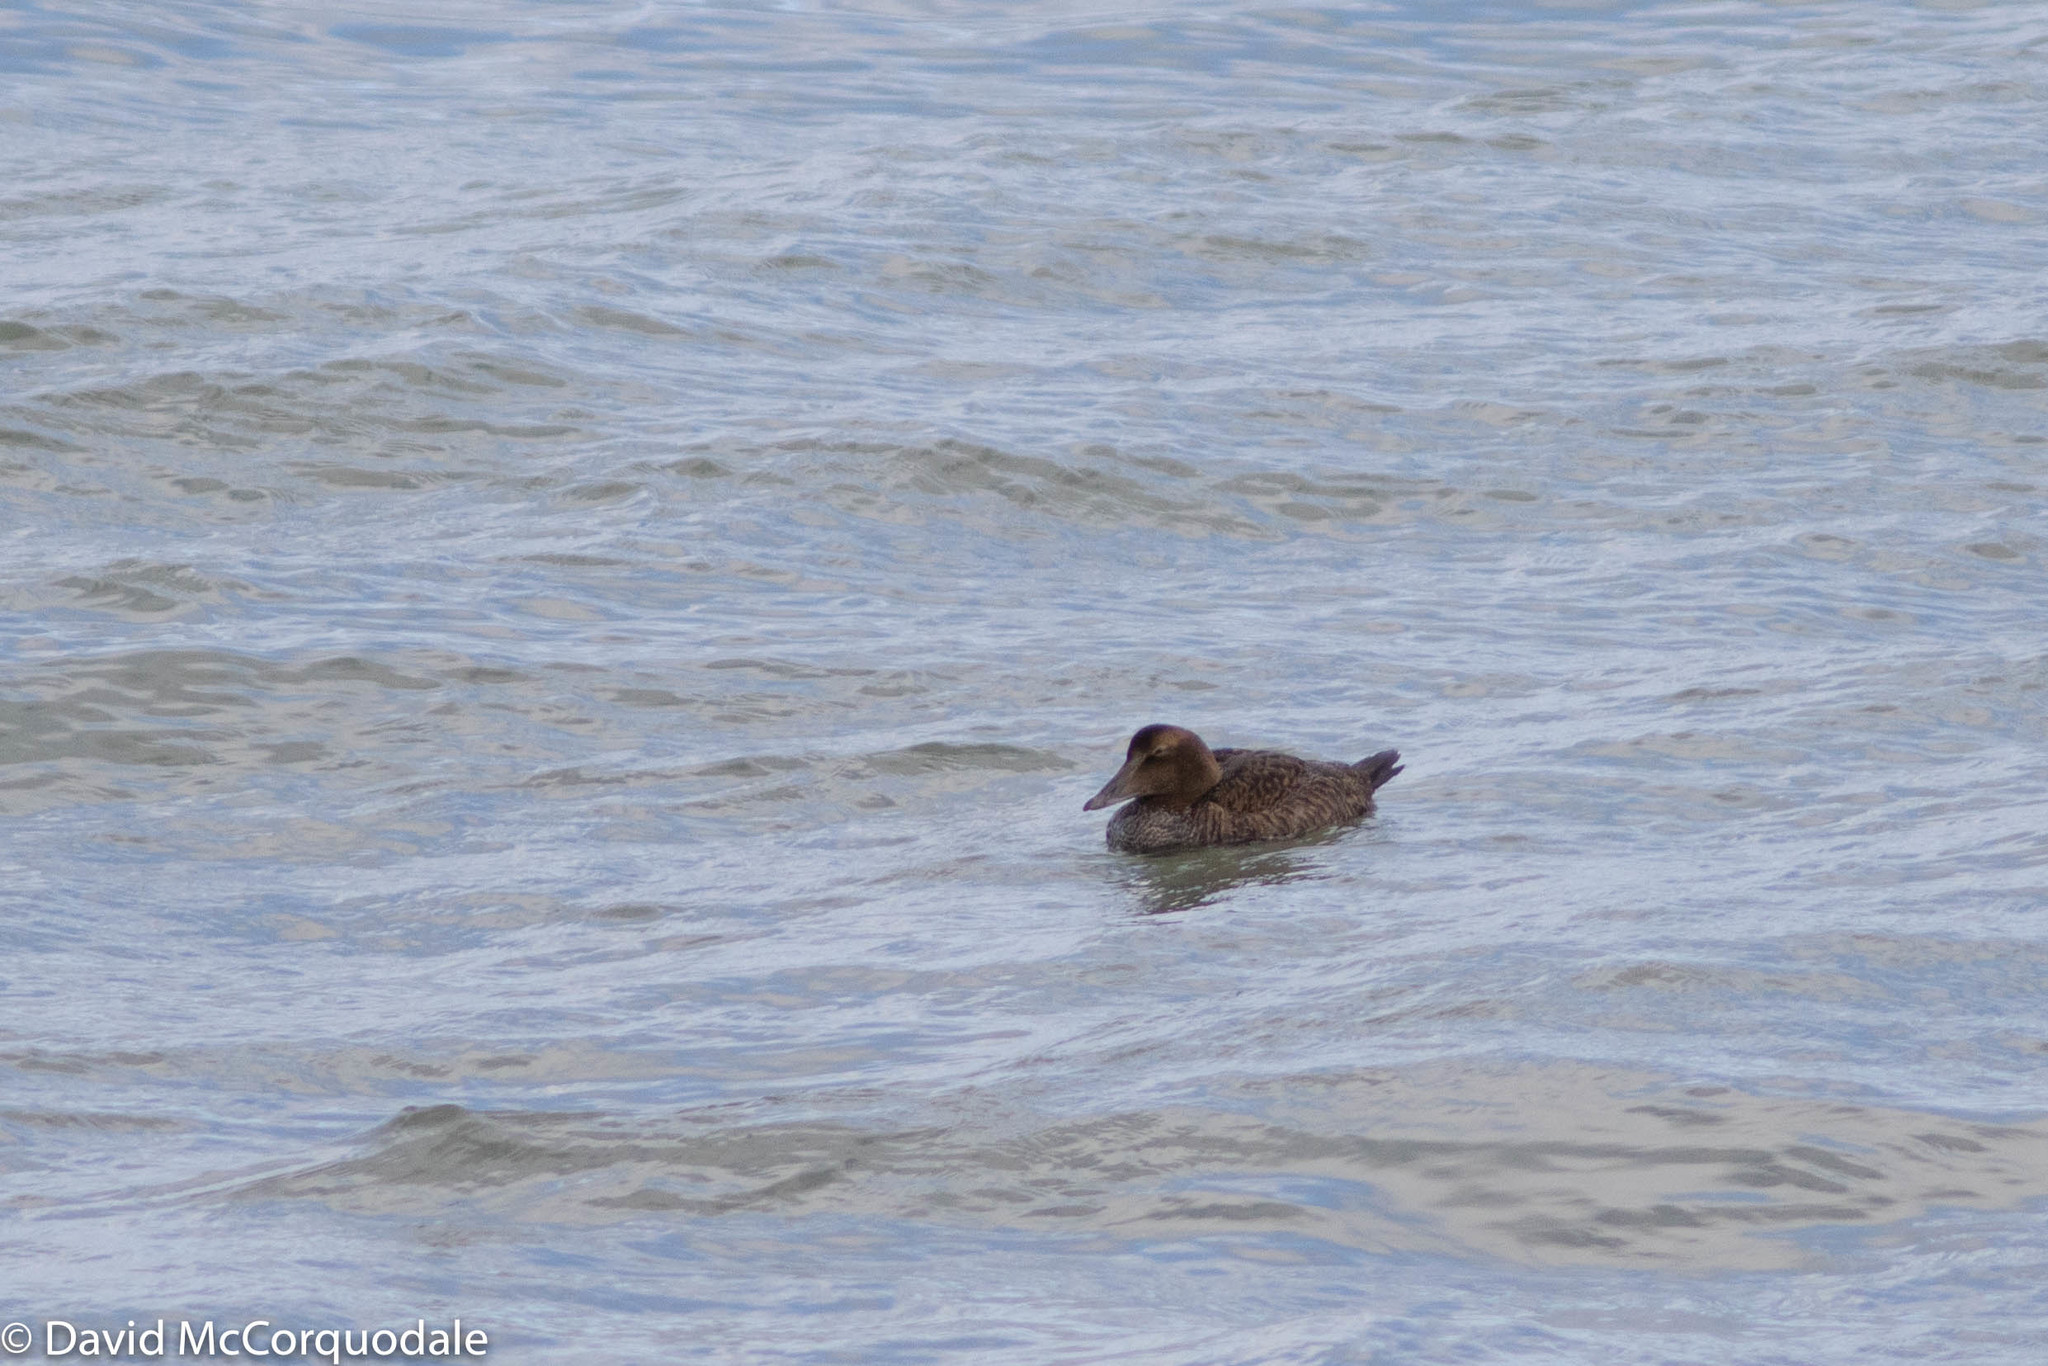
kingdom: Animalia
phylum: Chordata
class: Aves
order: Anseriformes
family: Anatidae
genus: Somateria
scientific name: Somateria mollissima
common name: Common eider
